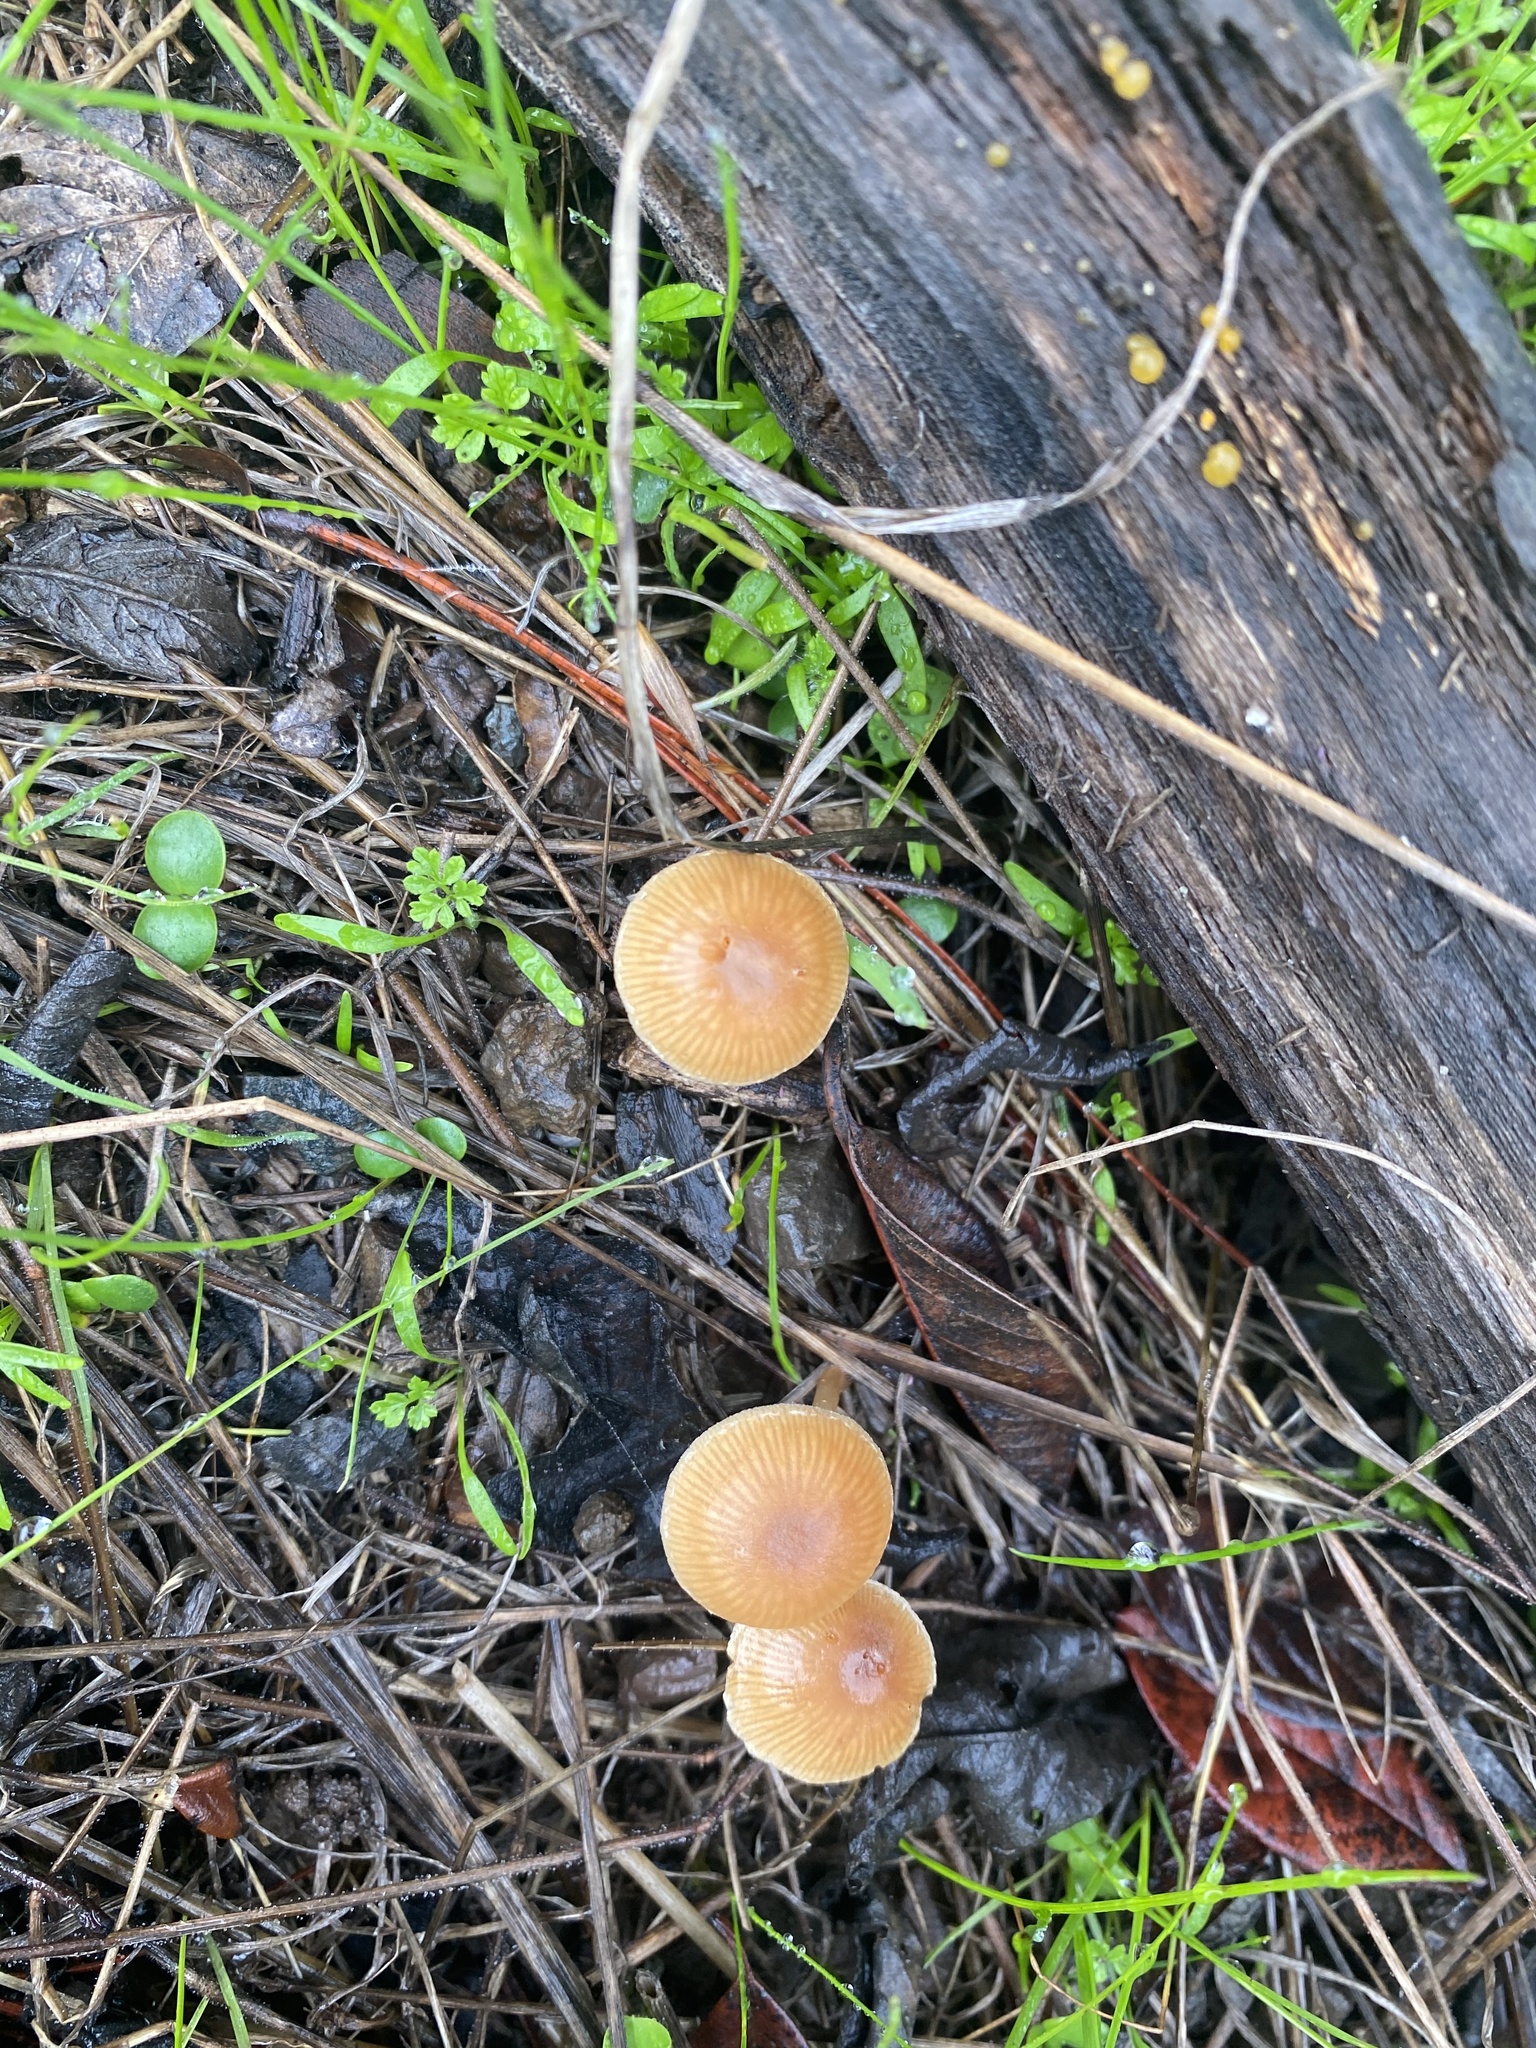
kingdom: Fungi
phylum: Basidiomycota
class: Agaricomycetes
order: Agaricales
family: Tubariaceae
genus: Tubaria
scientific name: Tubaria furfuracea
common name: Scurfy twiglet
